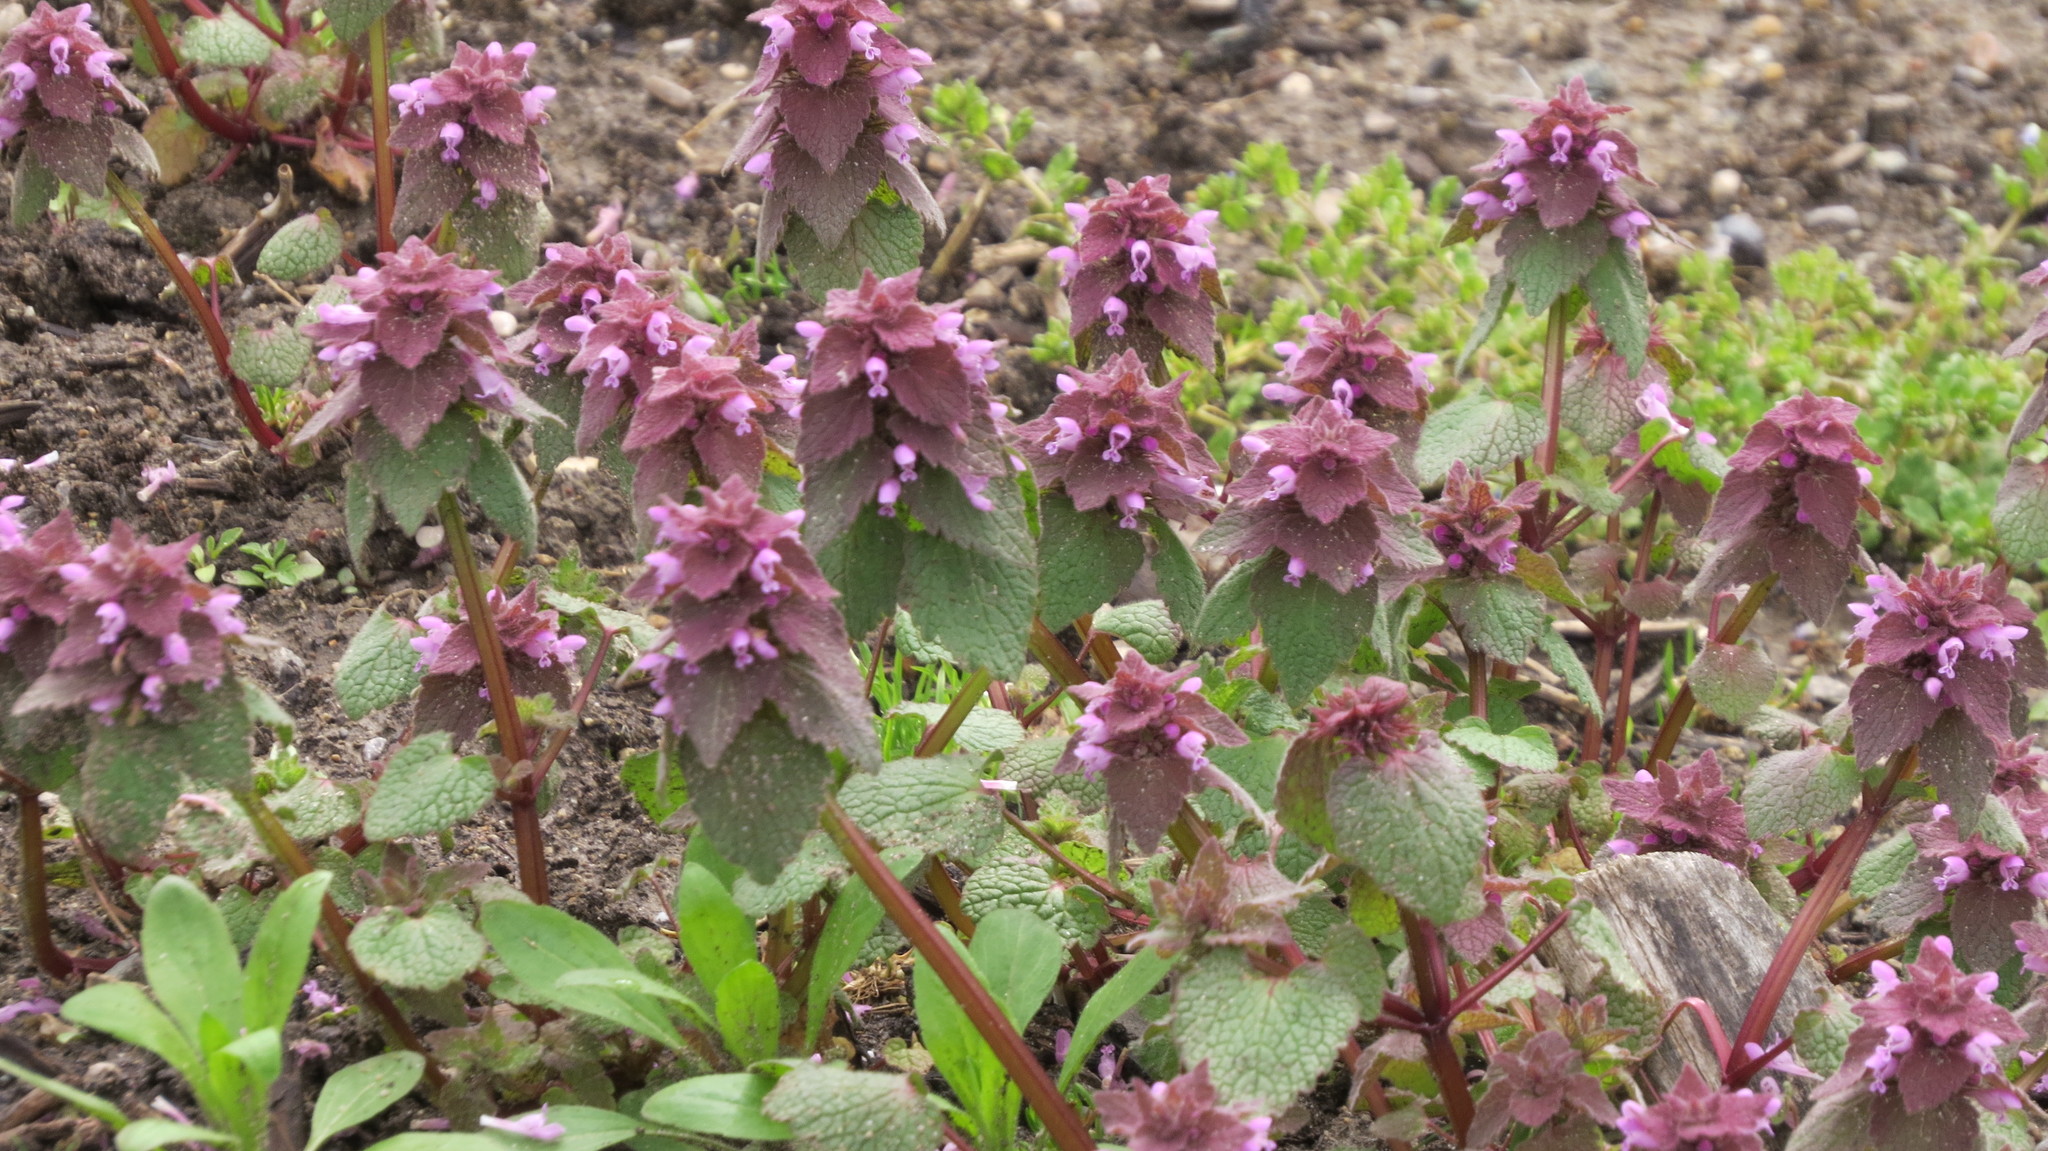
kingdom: Plantae
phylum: Tracheophyta
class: Magnoliopsida
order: Lamiales
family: Lamiaceae
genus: Lamium
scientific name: Lamium purpureum
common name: Red dead-nettle
